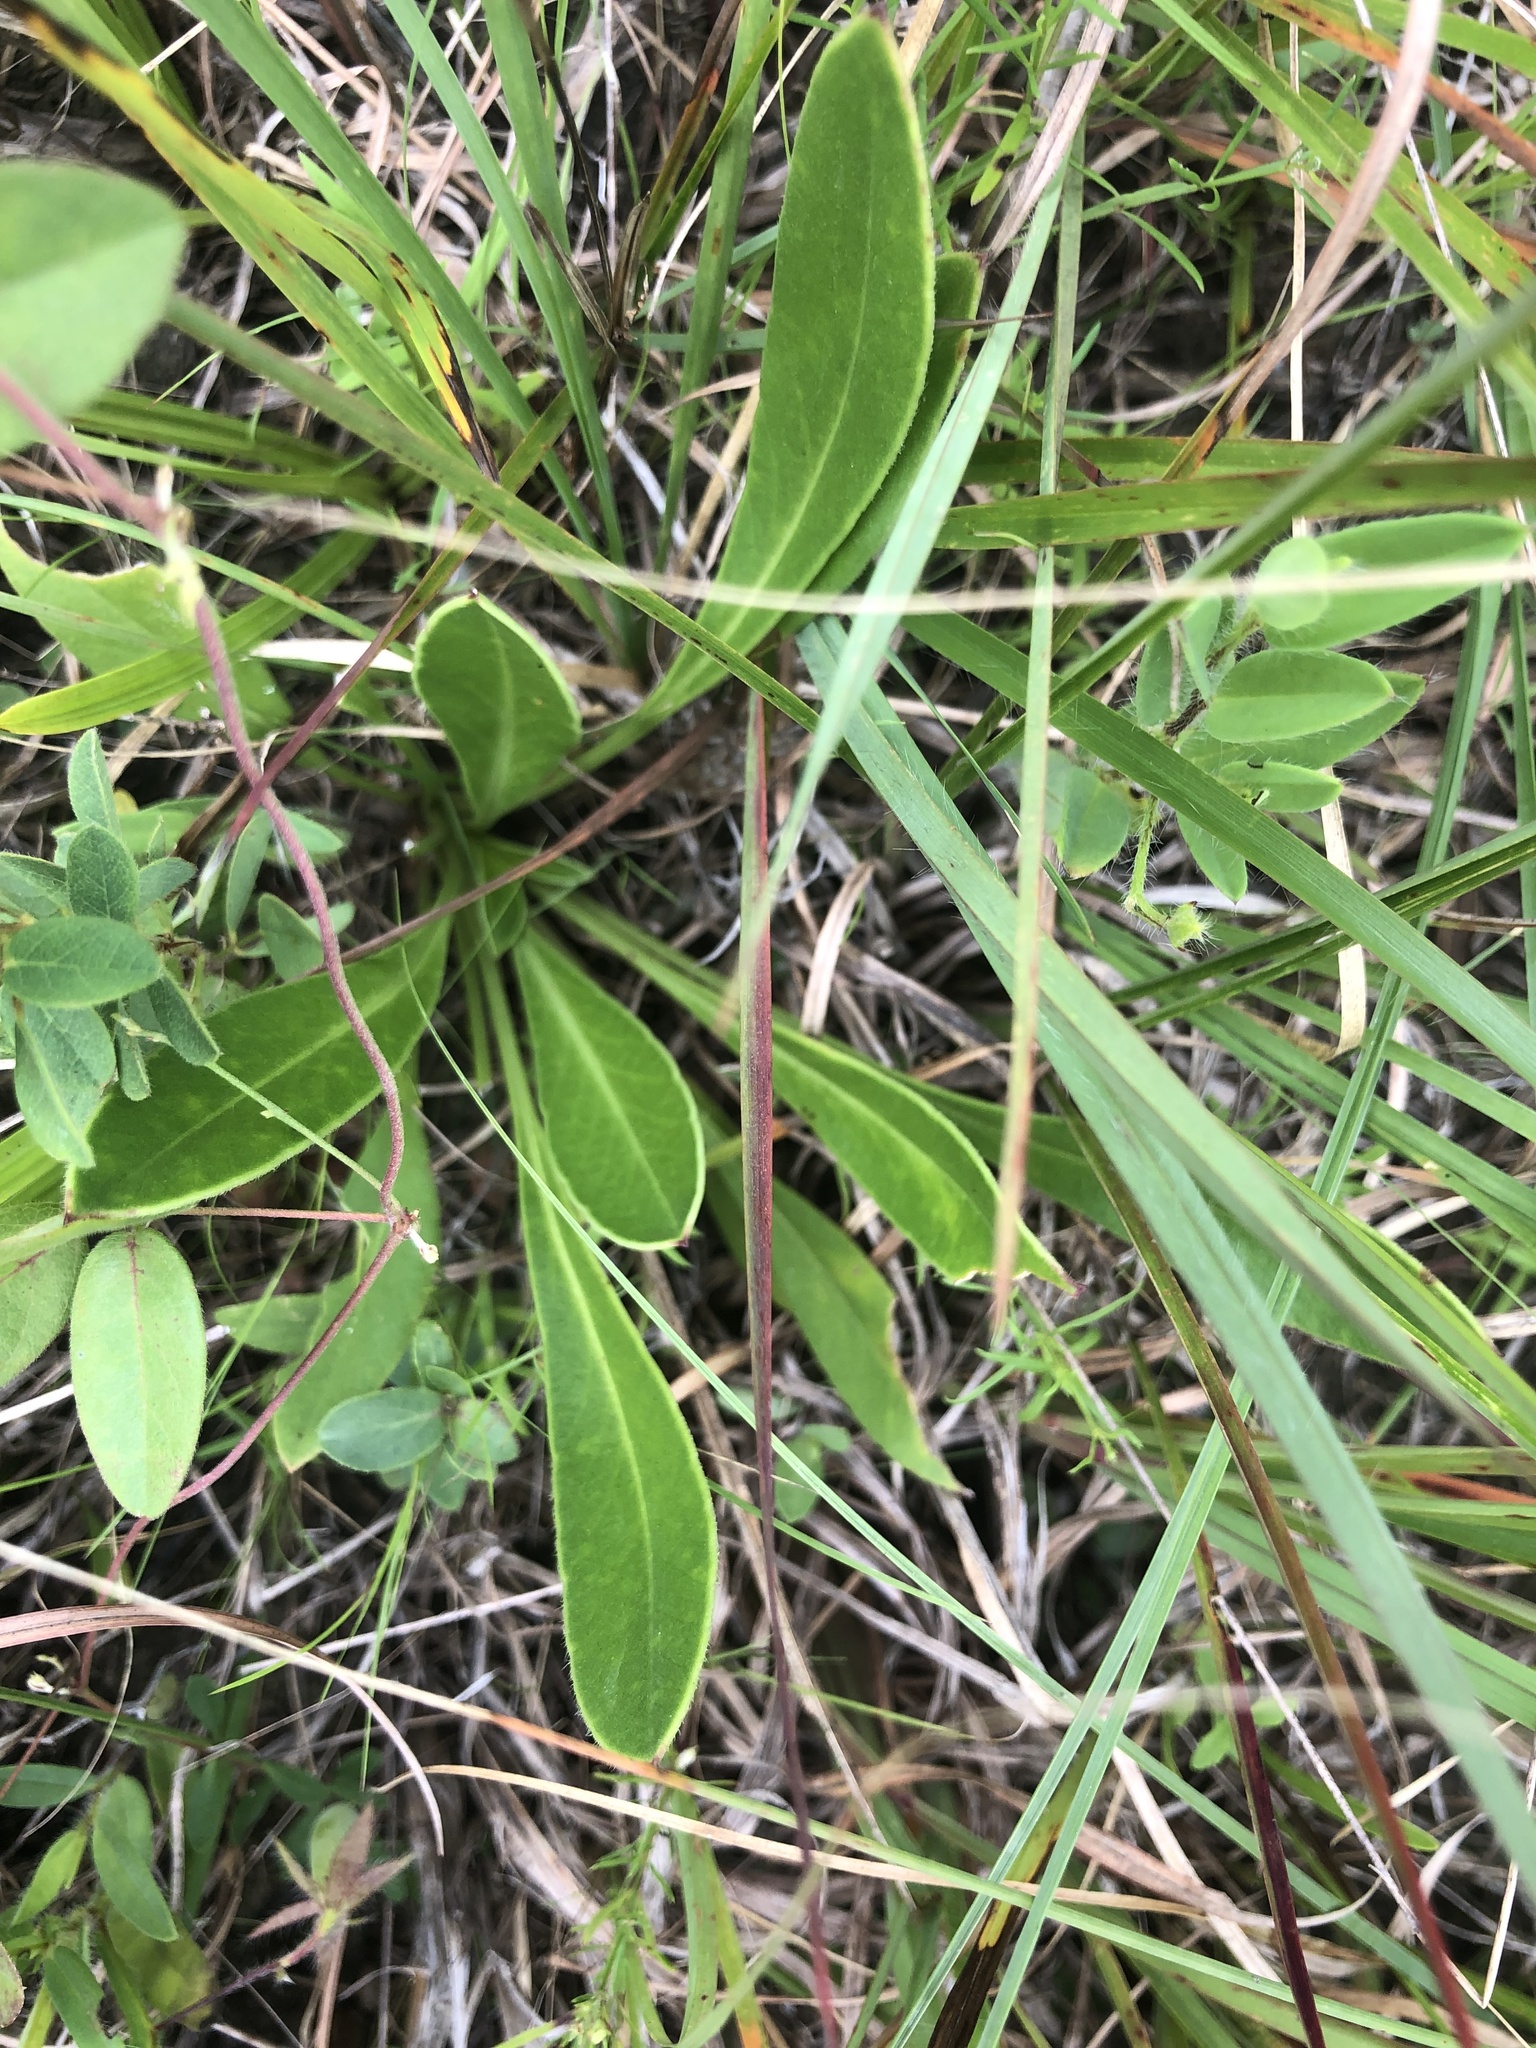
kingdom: Plantae
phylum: Tracheophyta
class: Magnoliopsida
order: Asterales
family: Asteraceae
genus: Coreopsis
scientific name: Coreopsis lanceolata
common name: Garden coreopsis
